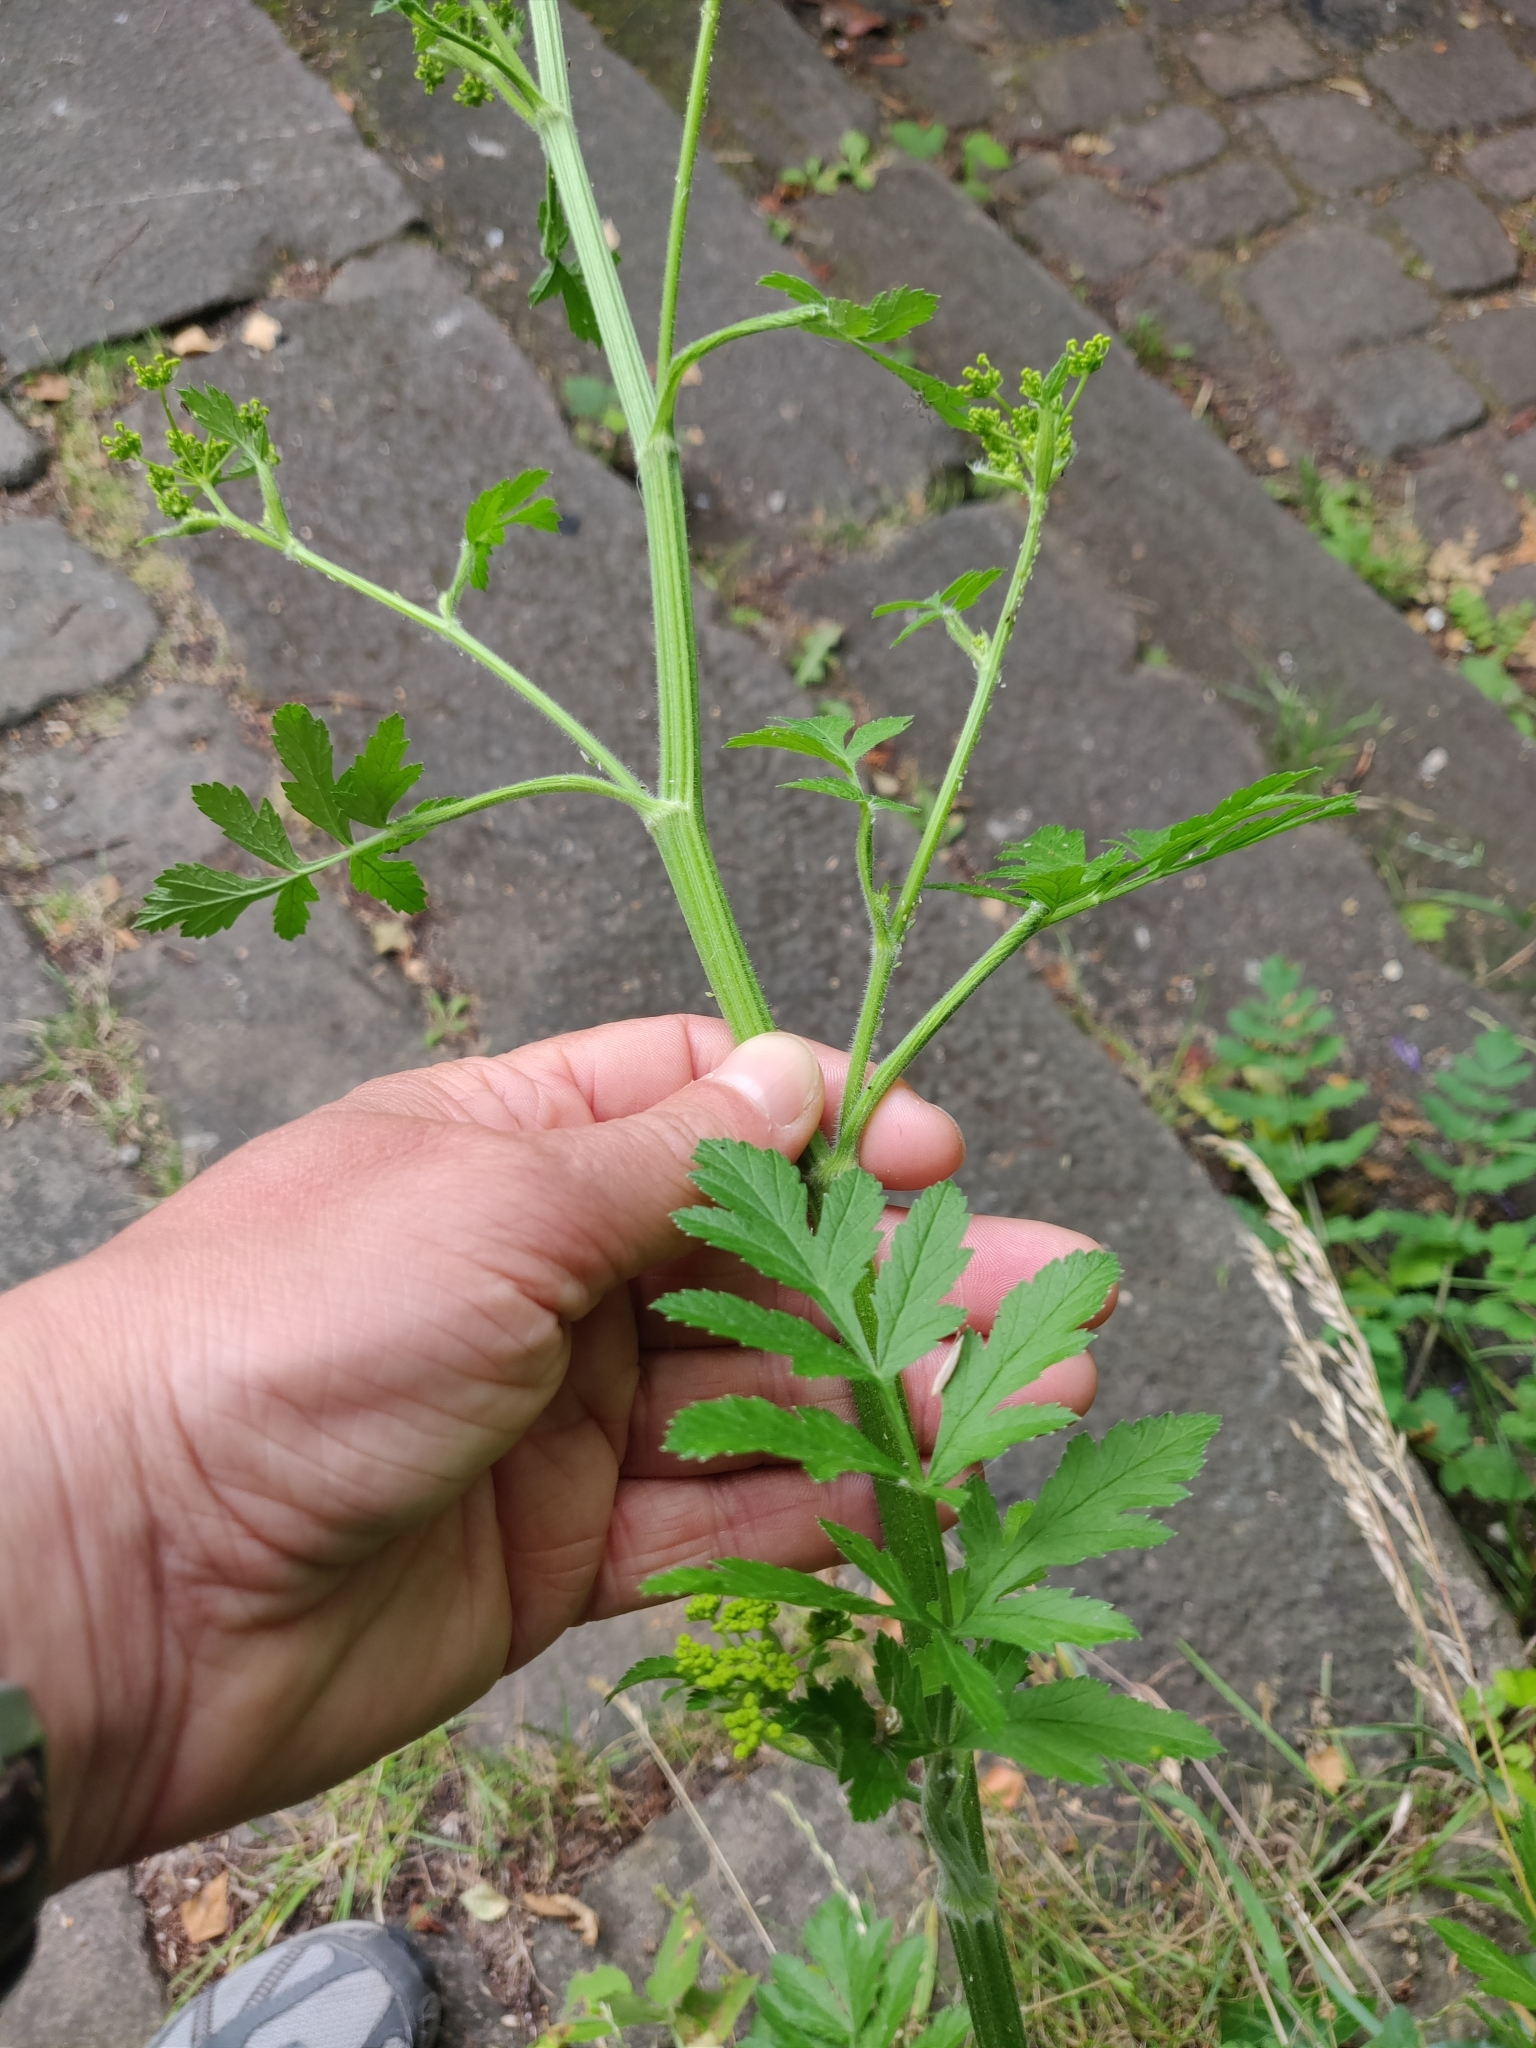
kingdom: Plantae
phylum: Tracheophyta
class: Magnoliopsida
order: Apiales
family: Apiaceae
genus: Pastinaca
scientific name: Pastinaca sativa
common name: Wild parsnip
